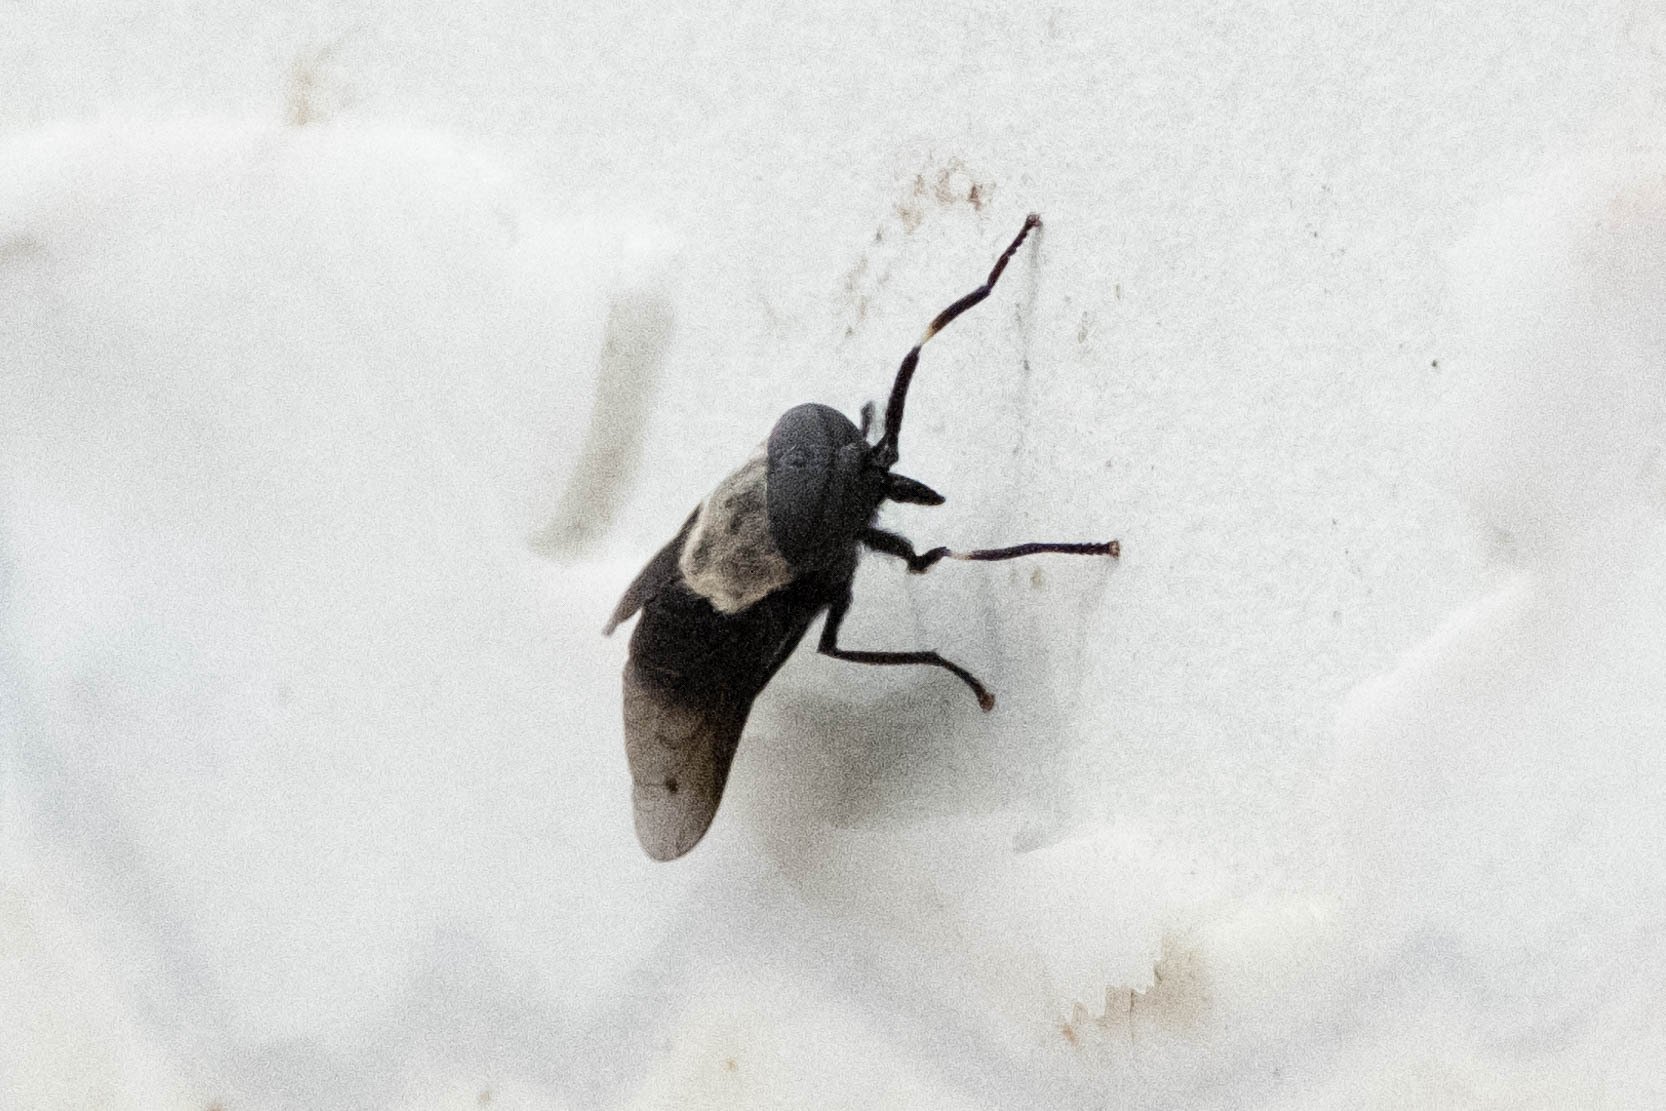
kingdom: Animalia
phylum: Arthropoda
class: Insecta
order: Diptera
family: Tabanidae
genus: Tabanus
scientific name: Tabanus punctifer
